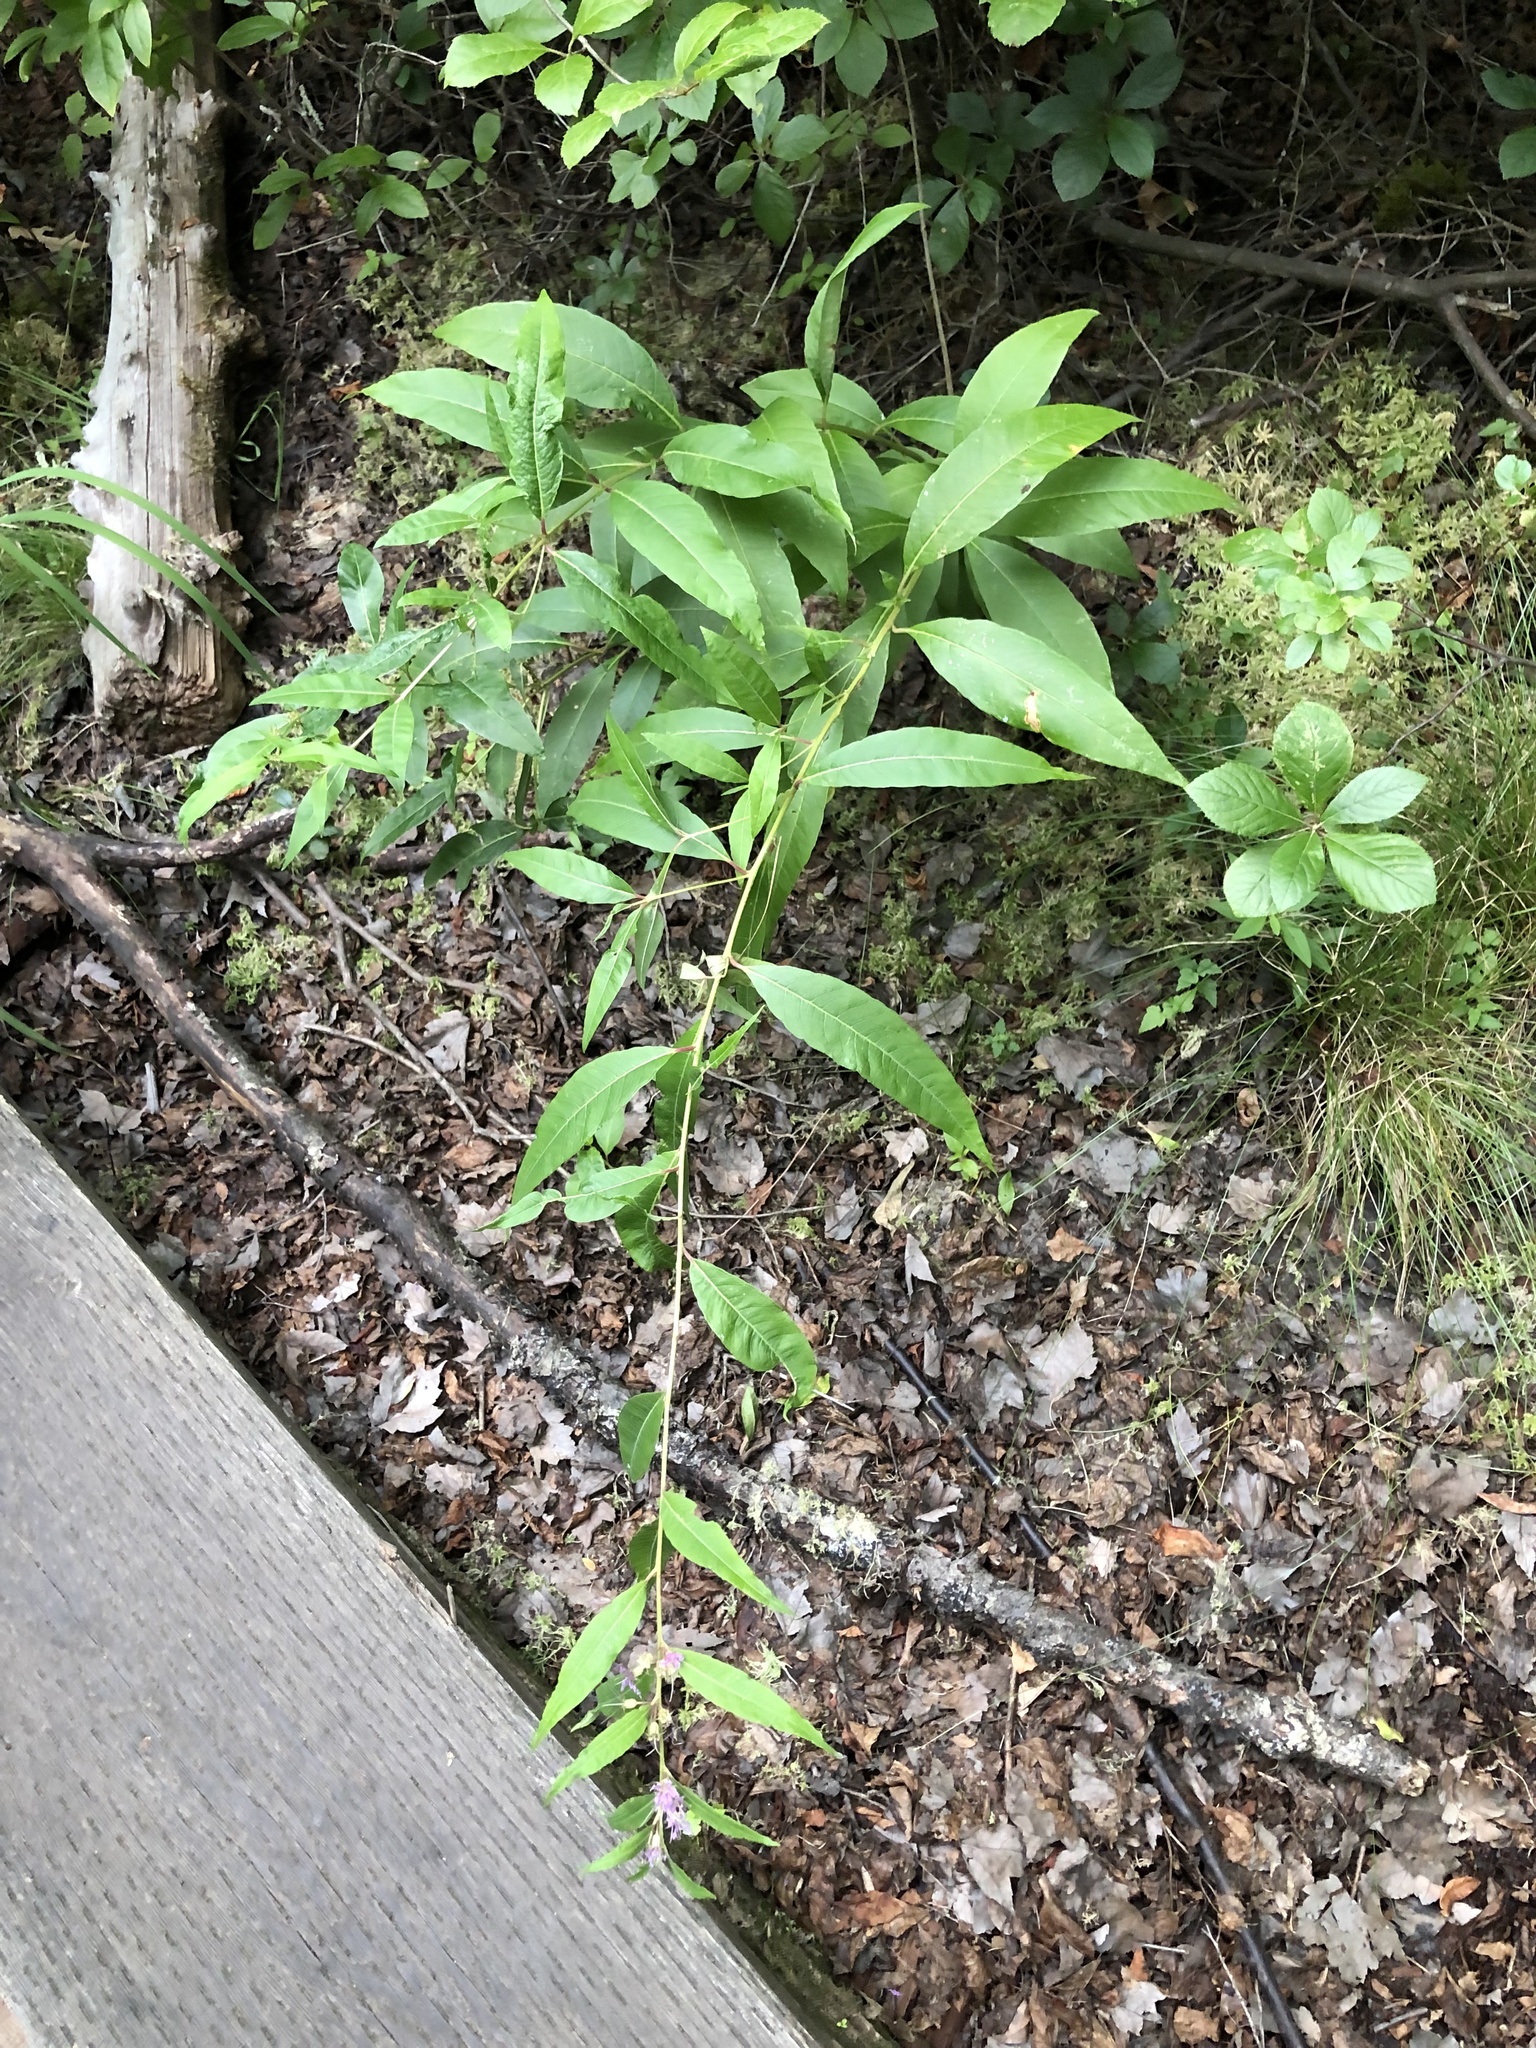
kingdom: Plantae
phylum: Tracheophyta
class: Magnoliopsida
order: Myrtales
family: Lythraceae
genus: Decodon
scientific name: Decodon verticillatus
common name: Hairy swamp loosestrife
